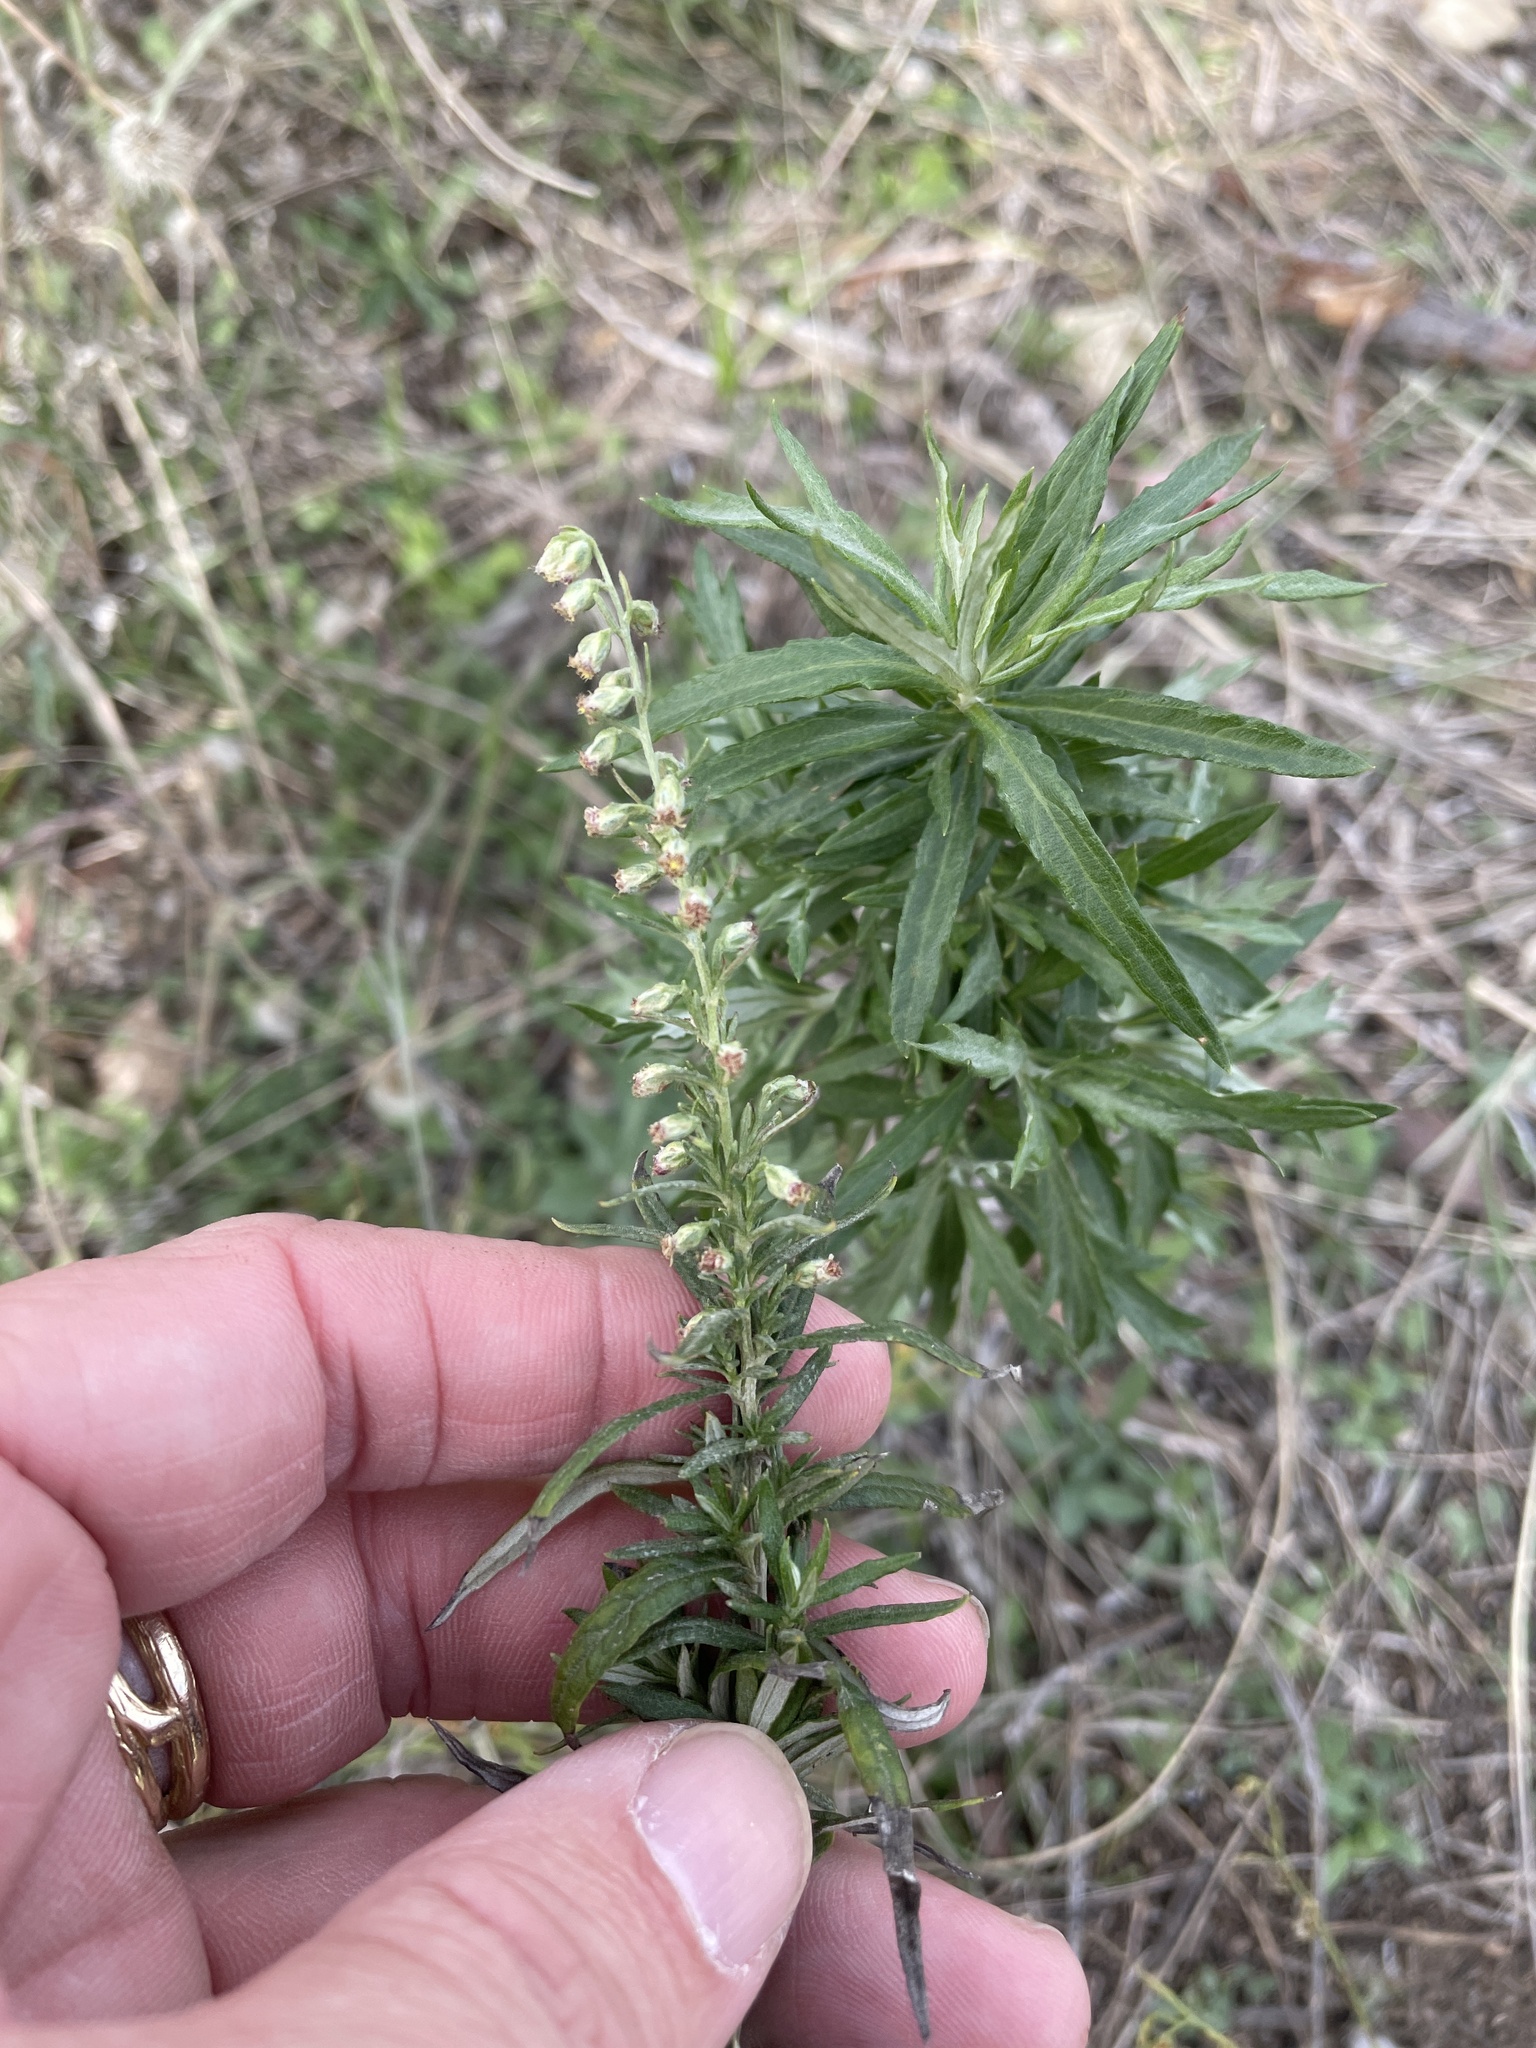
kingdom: Plantae
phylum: Tracheophyta
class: Magnoliopsida
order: Asterales
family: Asteraceae
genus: Artemisia
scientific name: Artemisia ludoviciana
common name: Western mugwort
